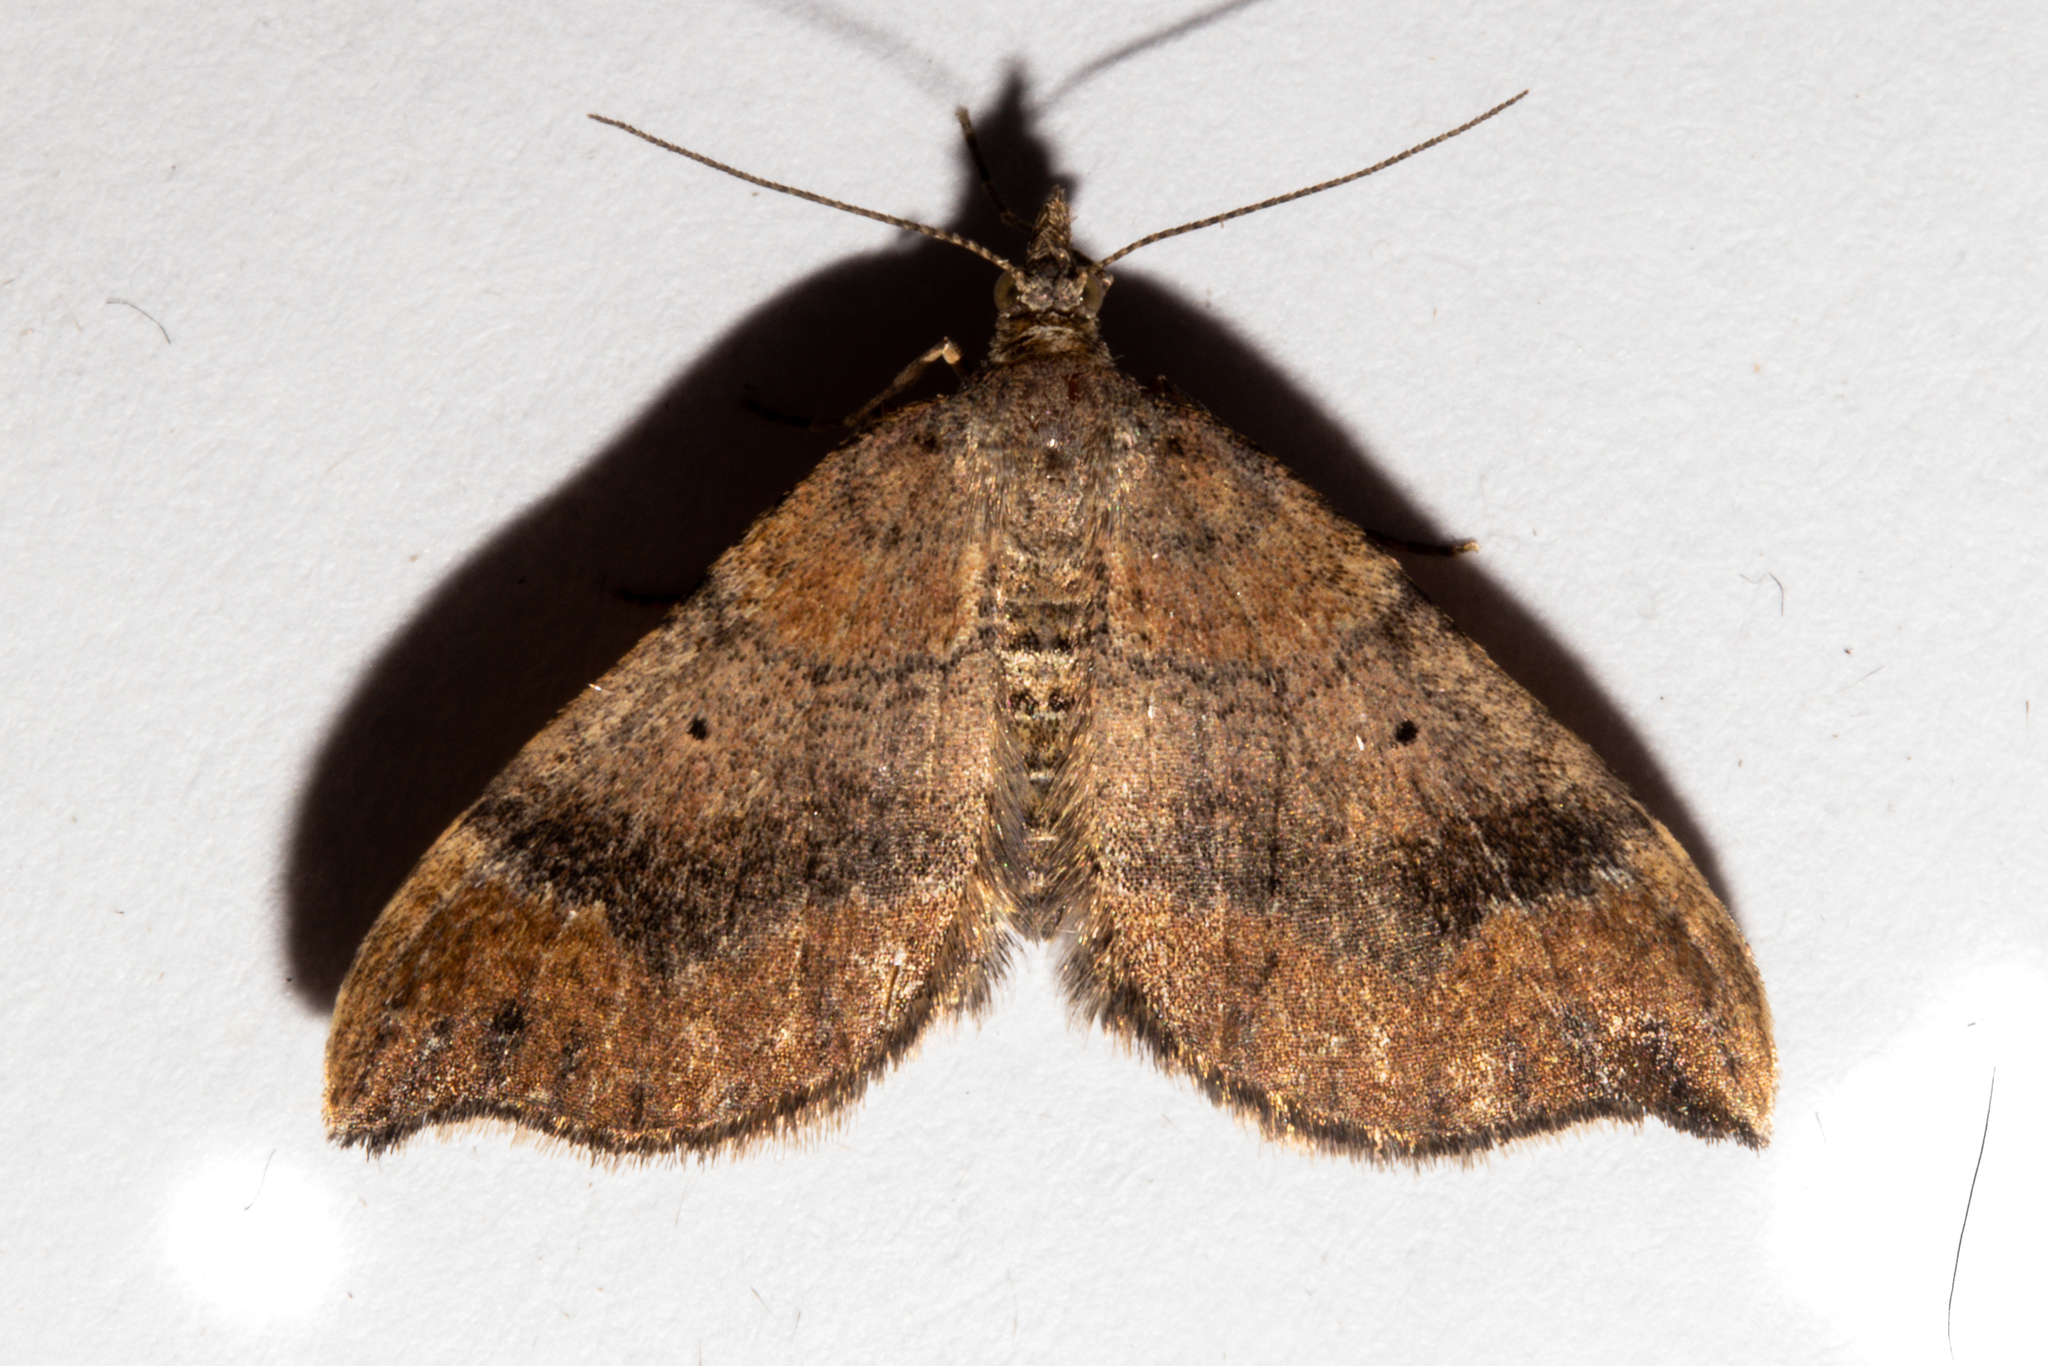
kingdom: Animalia
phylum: Arthropoda
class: Insecta
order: Lepidoptera
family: Geometridae
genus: Homodotis
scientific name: Homodotis megaspilata
